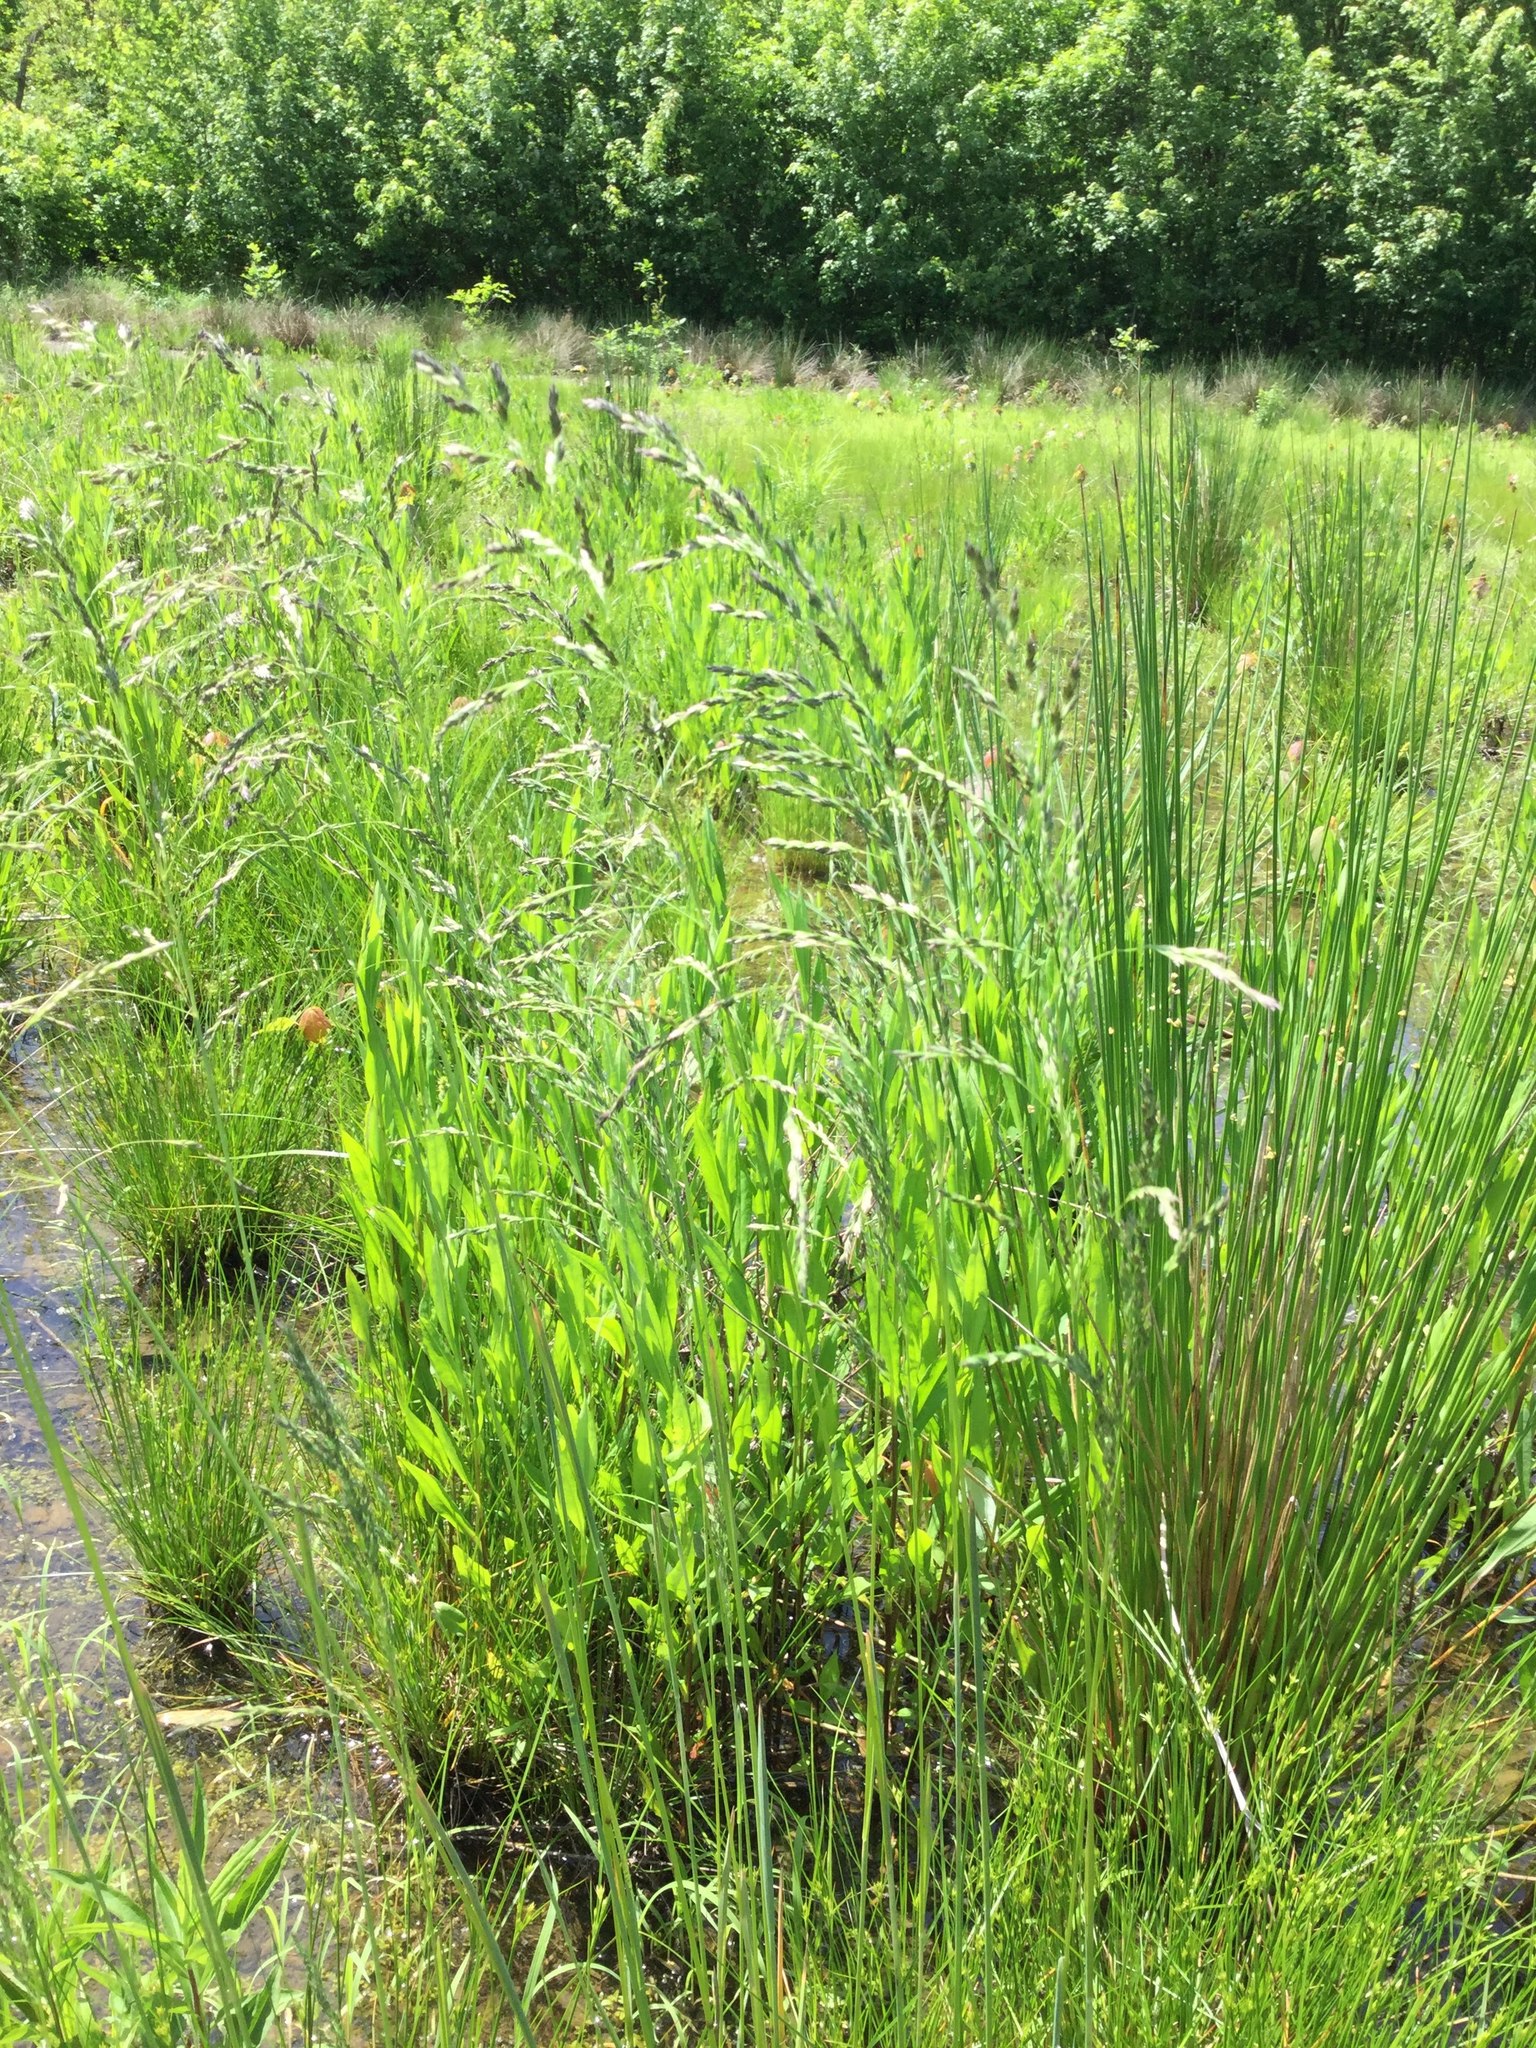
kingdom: Plantae
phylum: Tracheophyta
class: Liliopsida
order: Poales
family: Poaceae
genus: Poa
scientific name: Poa pratensis
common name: Kentucky bluegrass
